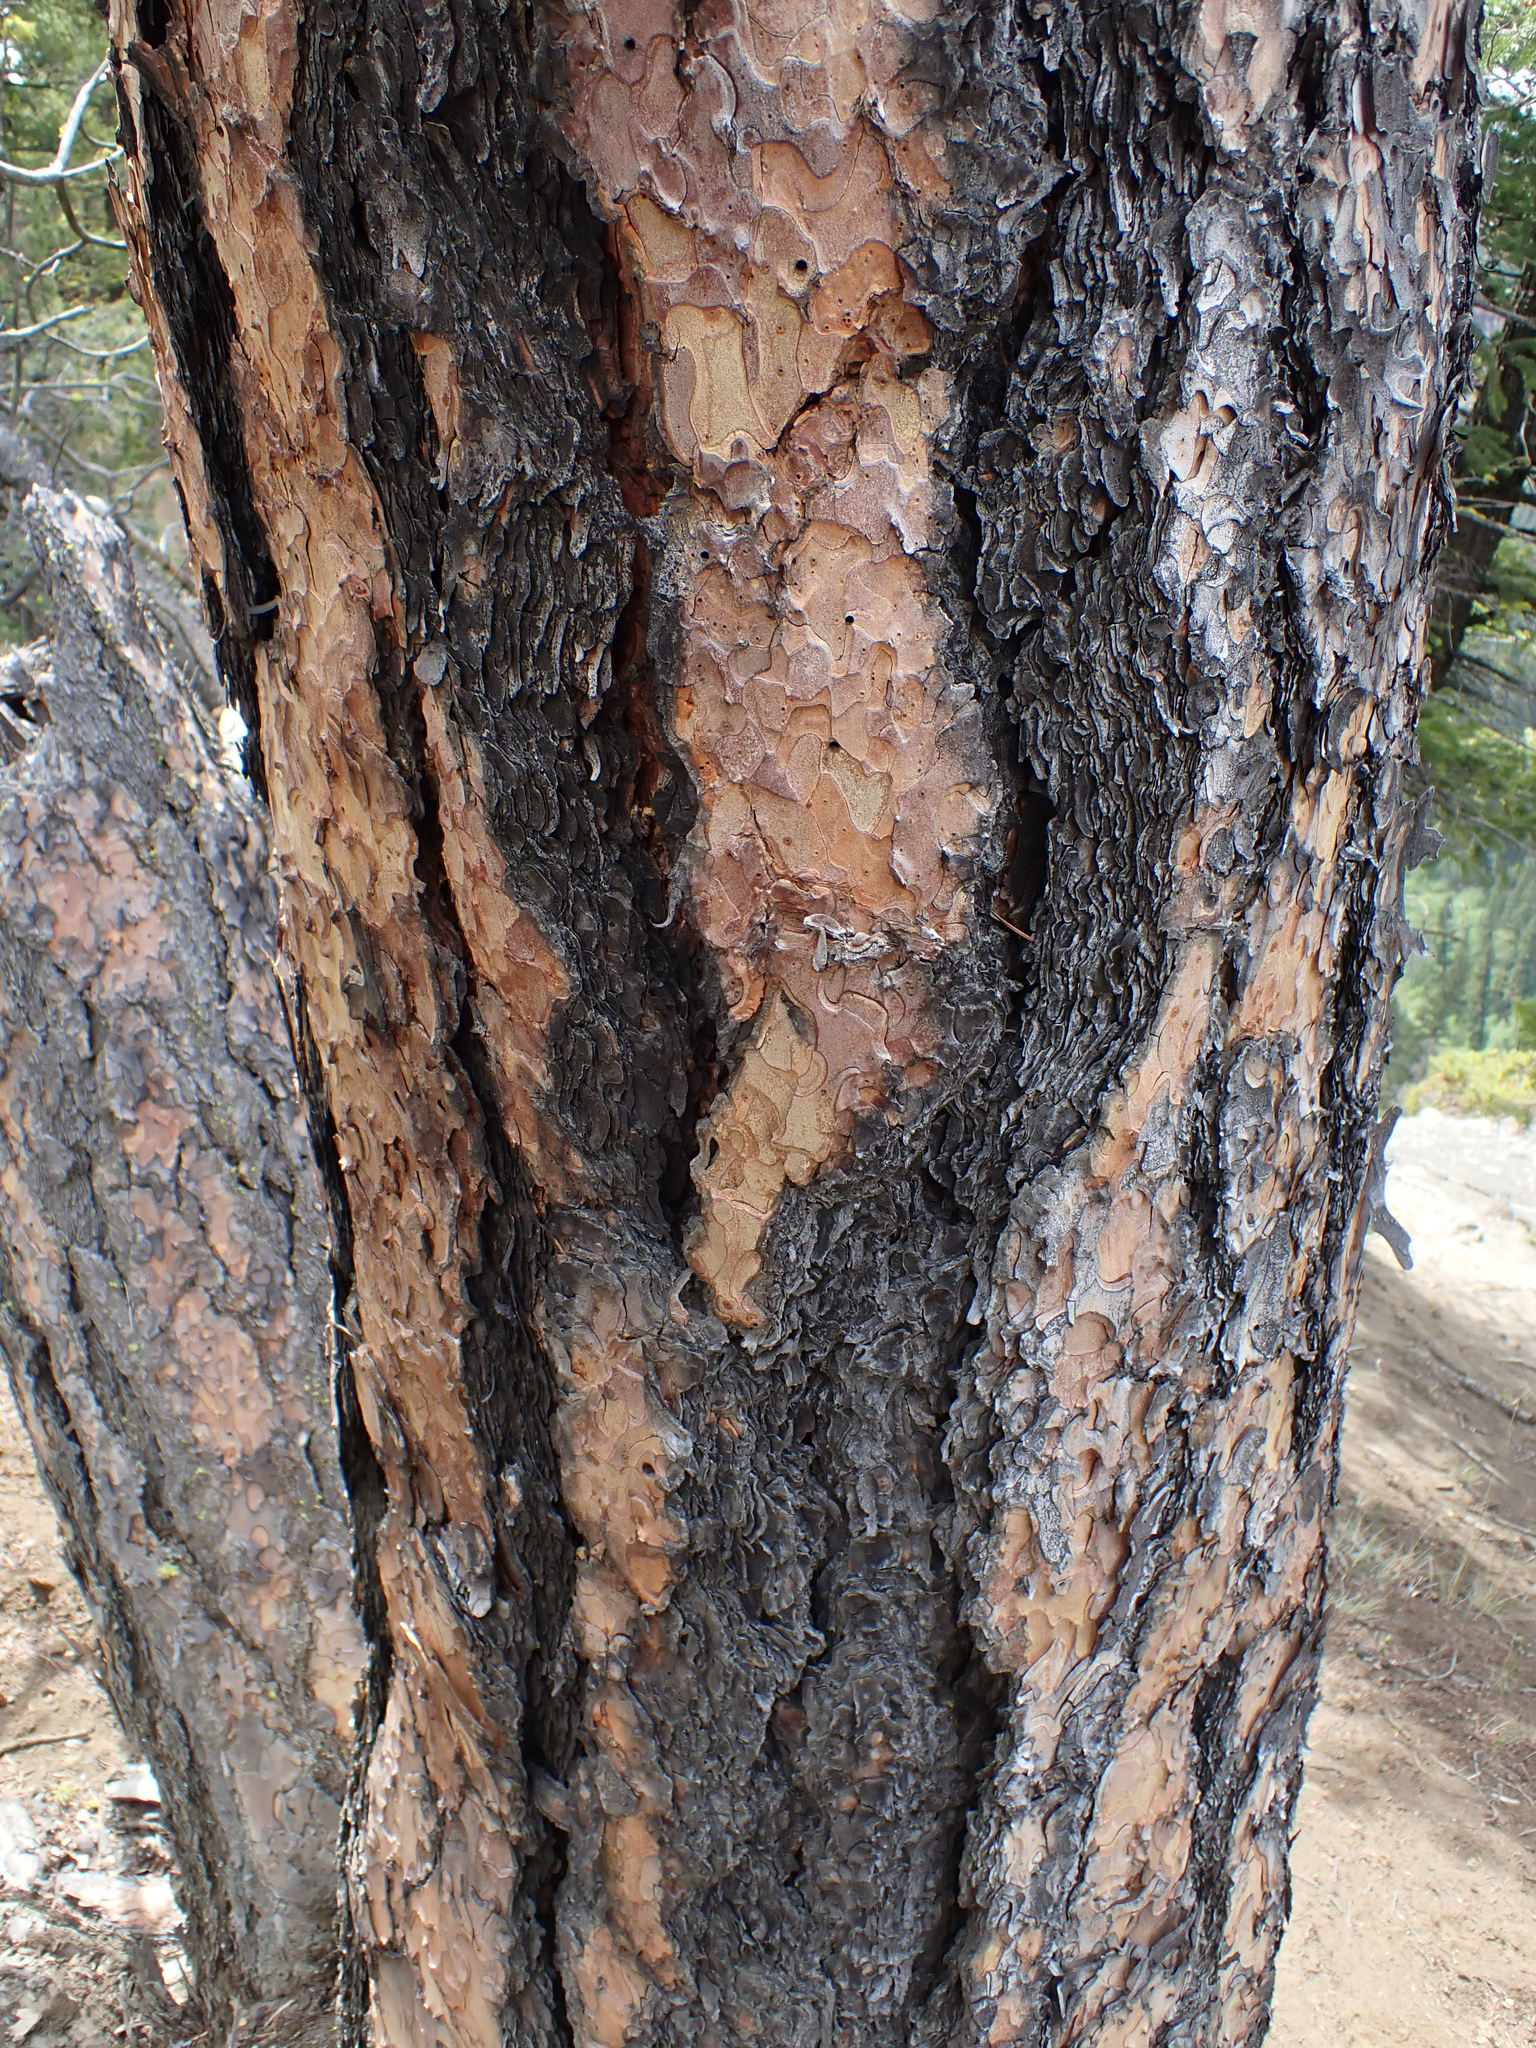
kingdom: Plantae
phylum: Tracheophyta
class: Pinopsida
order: Pinales
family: Pinaceae
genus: Pinus
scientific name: Pinus ponderosa
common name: Western yellow-pine
